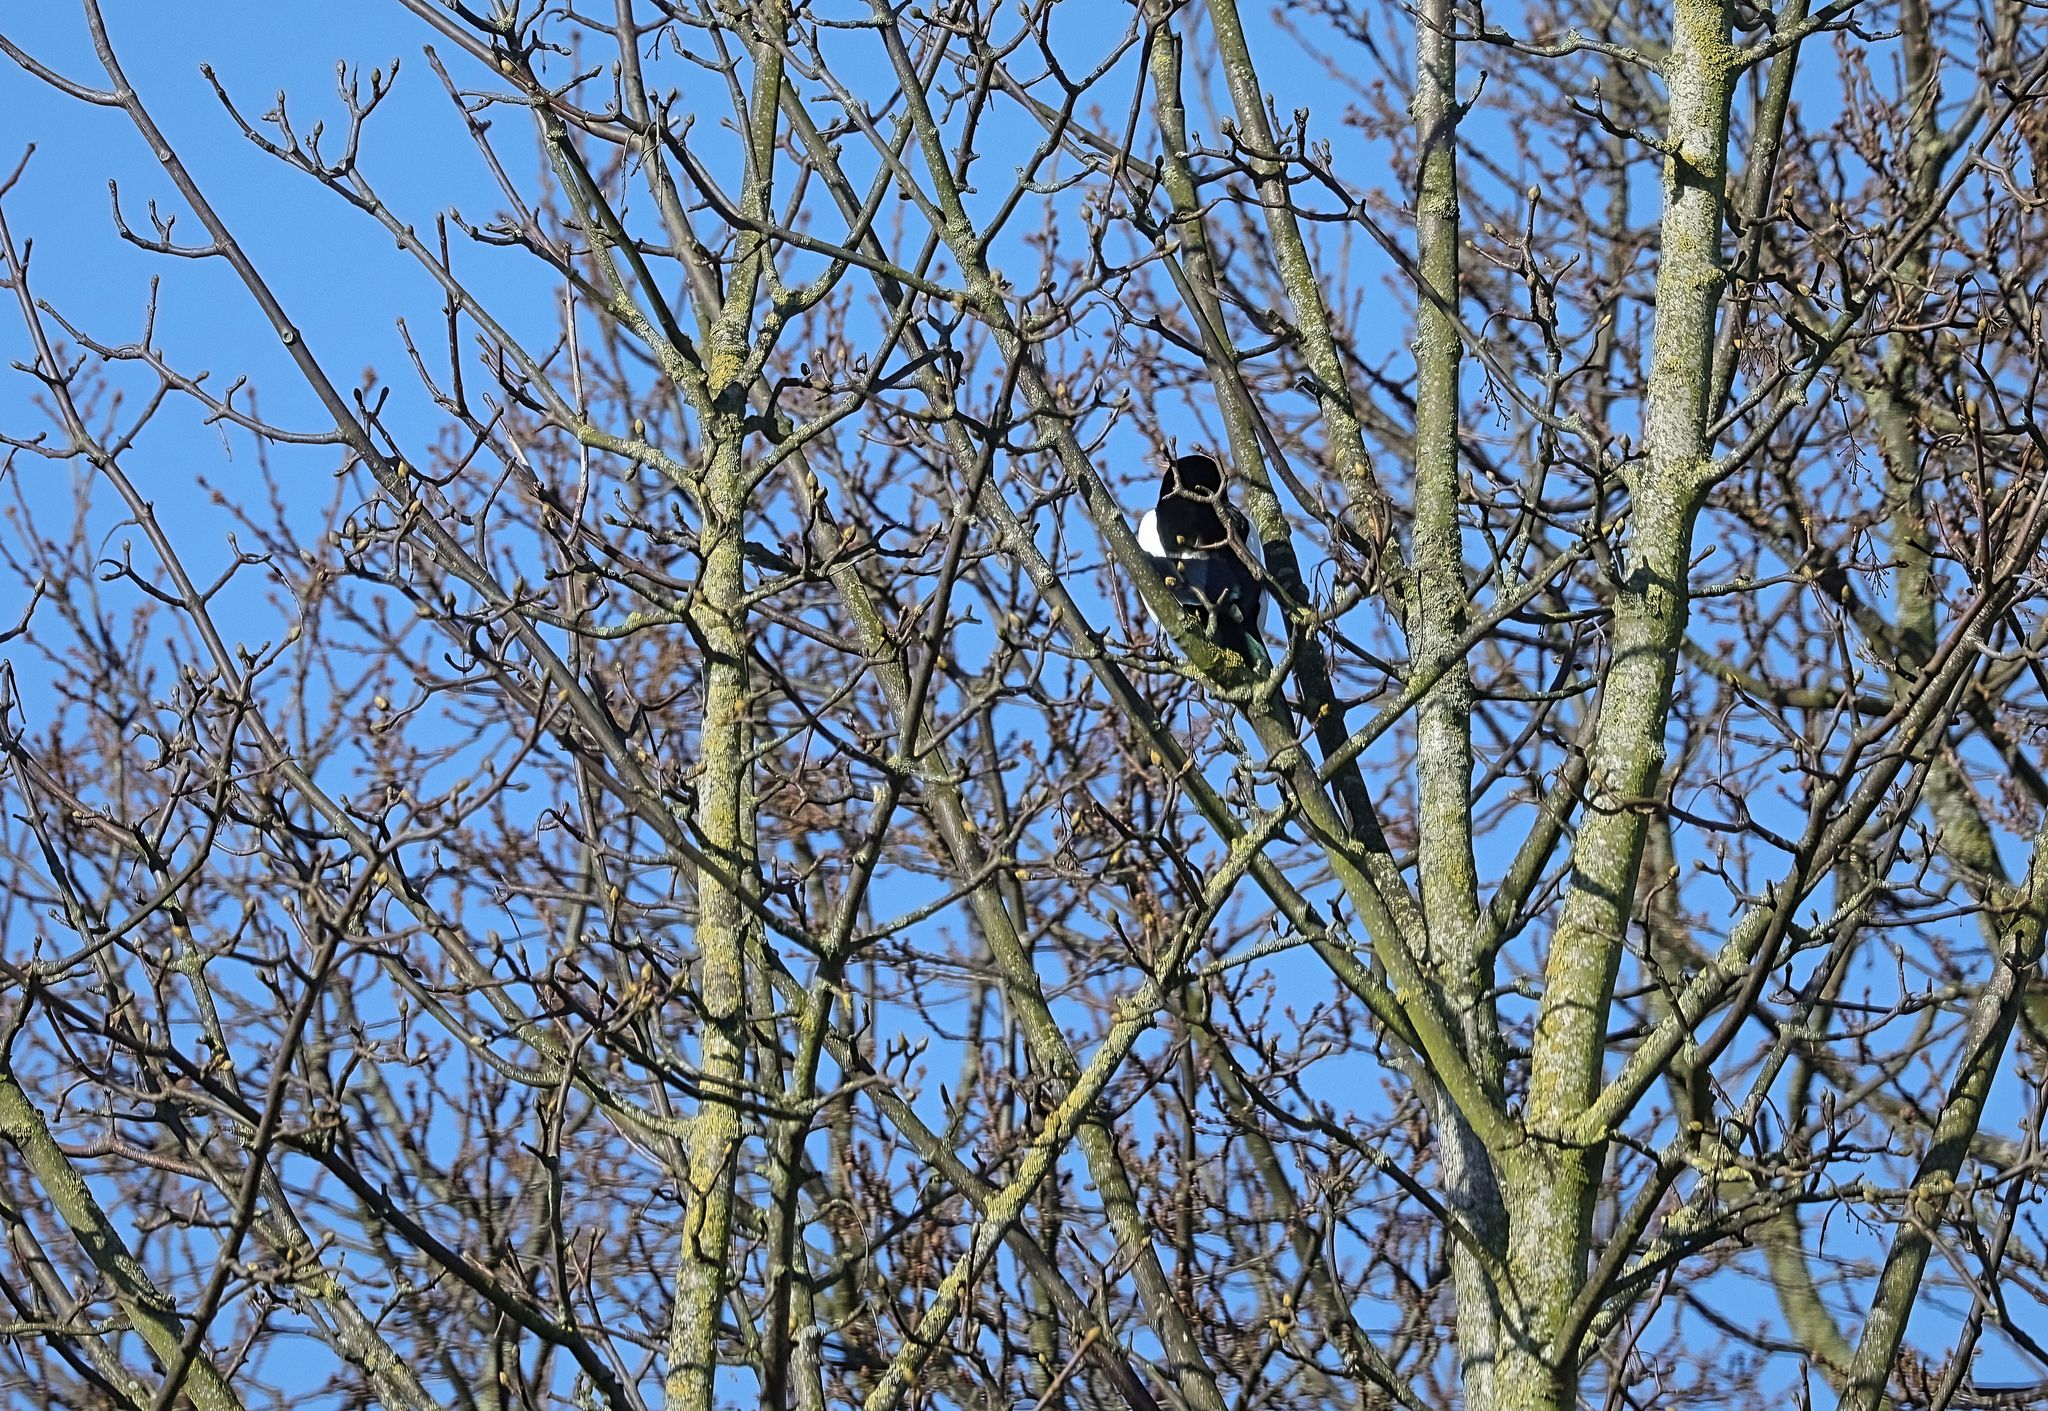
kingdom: Animalia
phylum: Chordata
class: Aves
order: Passeriformes
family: Corvidae
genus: Pica
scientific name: Pica pica
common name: Eurasian magpie
